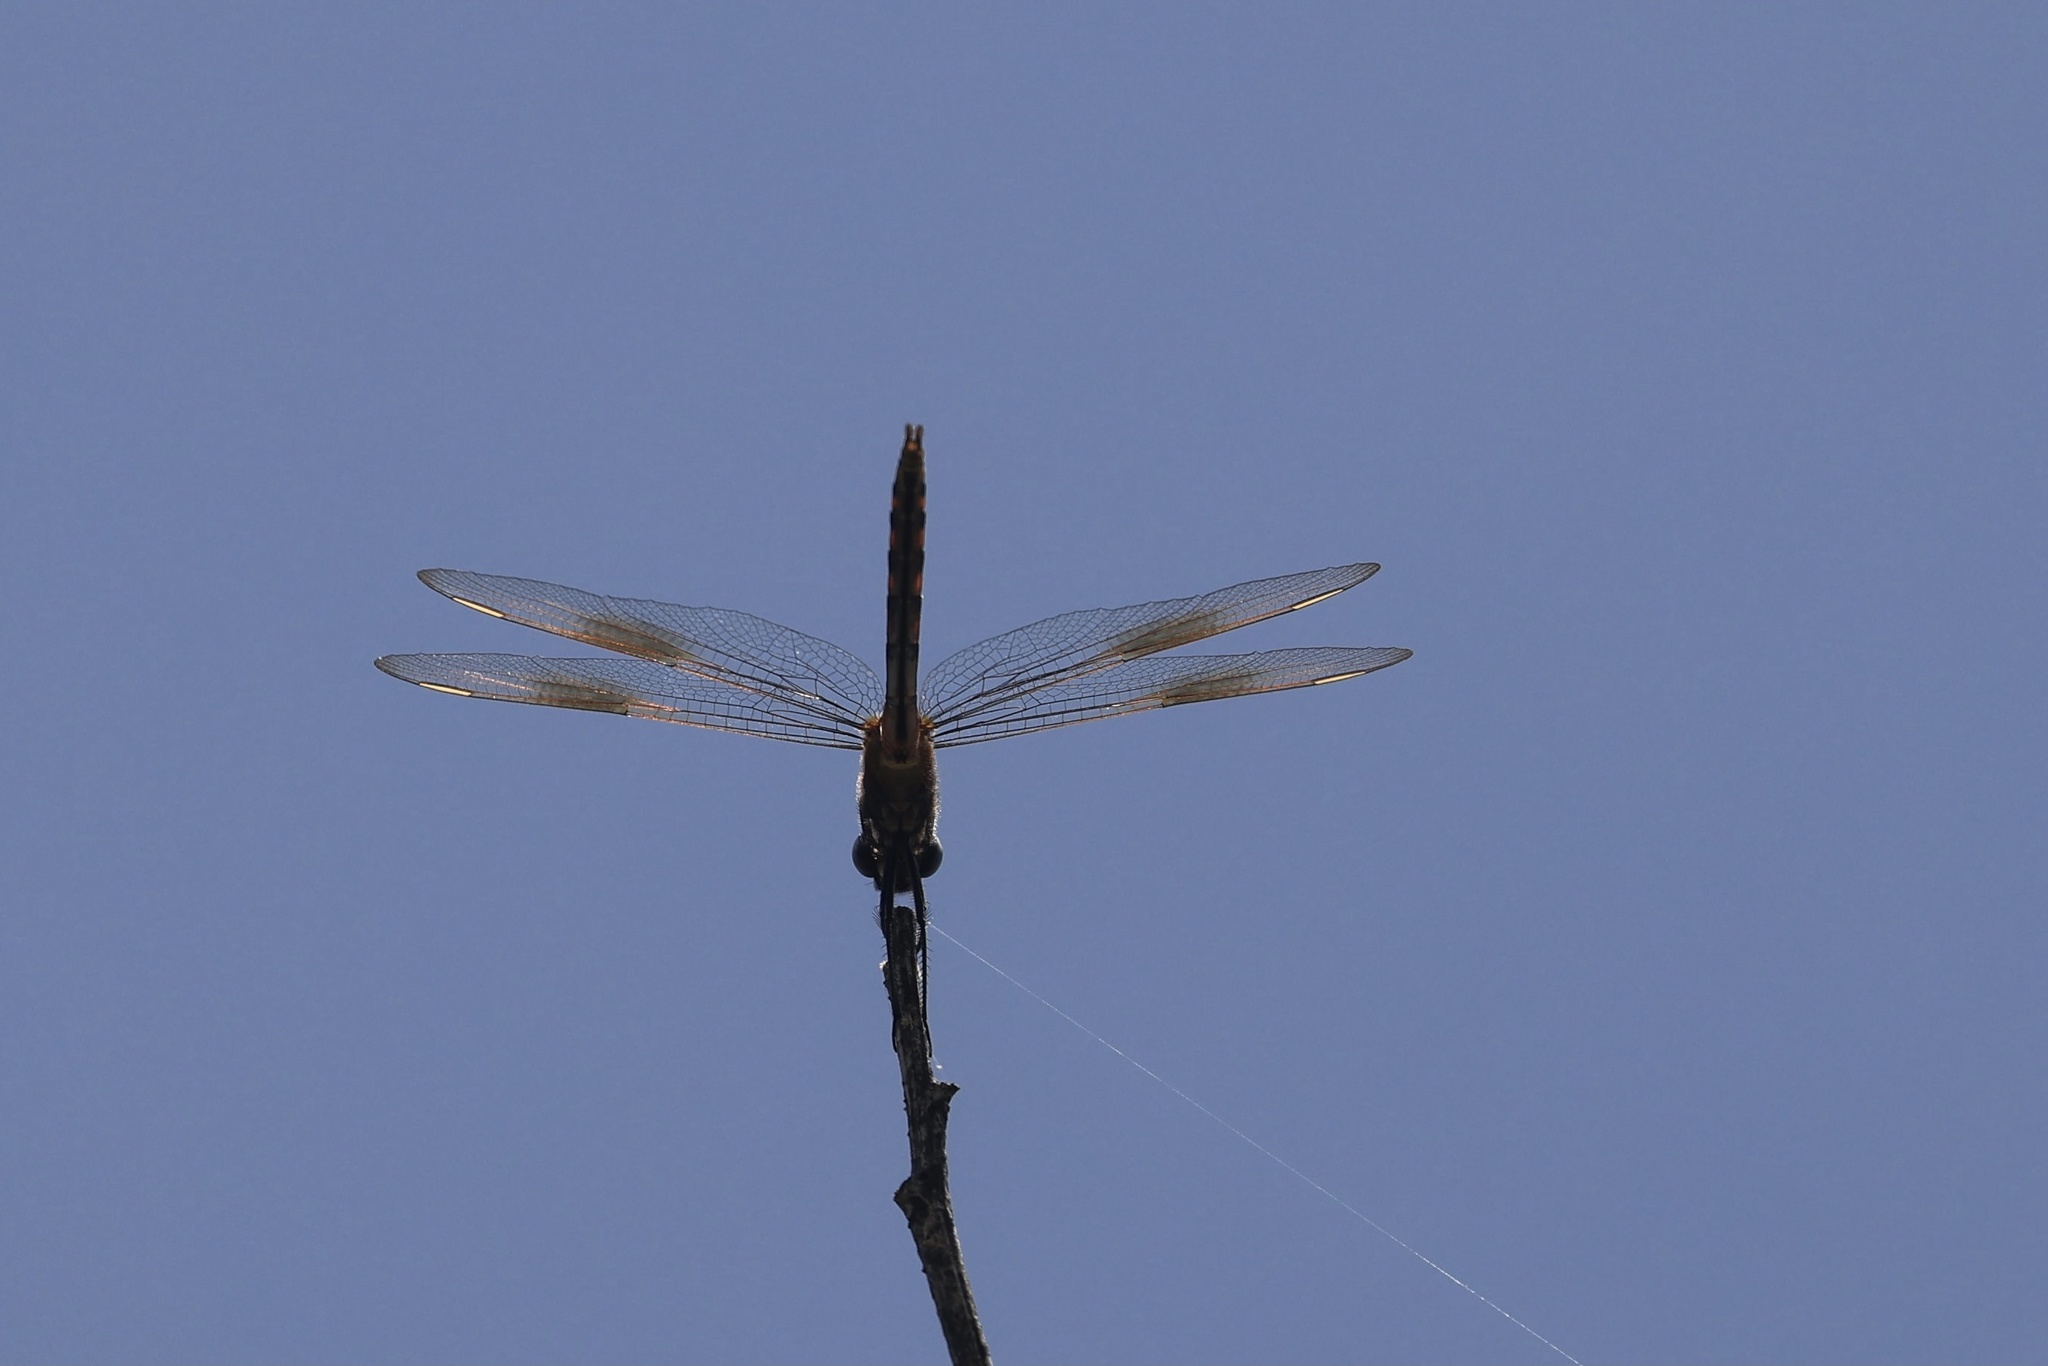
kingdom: Animalia
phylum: Arthropoda
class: Insecta
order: Odonata
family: Libellulidae
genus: Brachymesia
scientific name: Brachymesia gravida
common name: Four-spotted pennant
